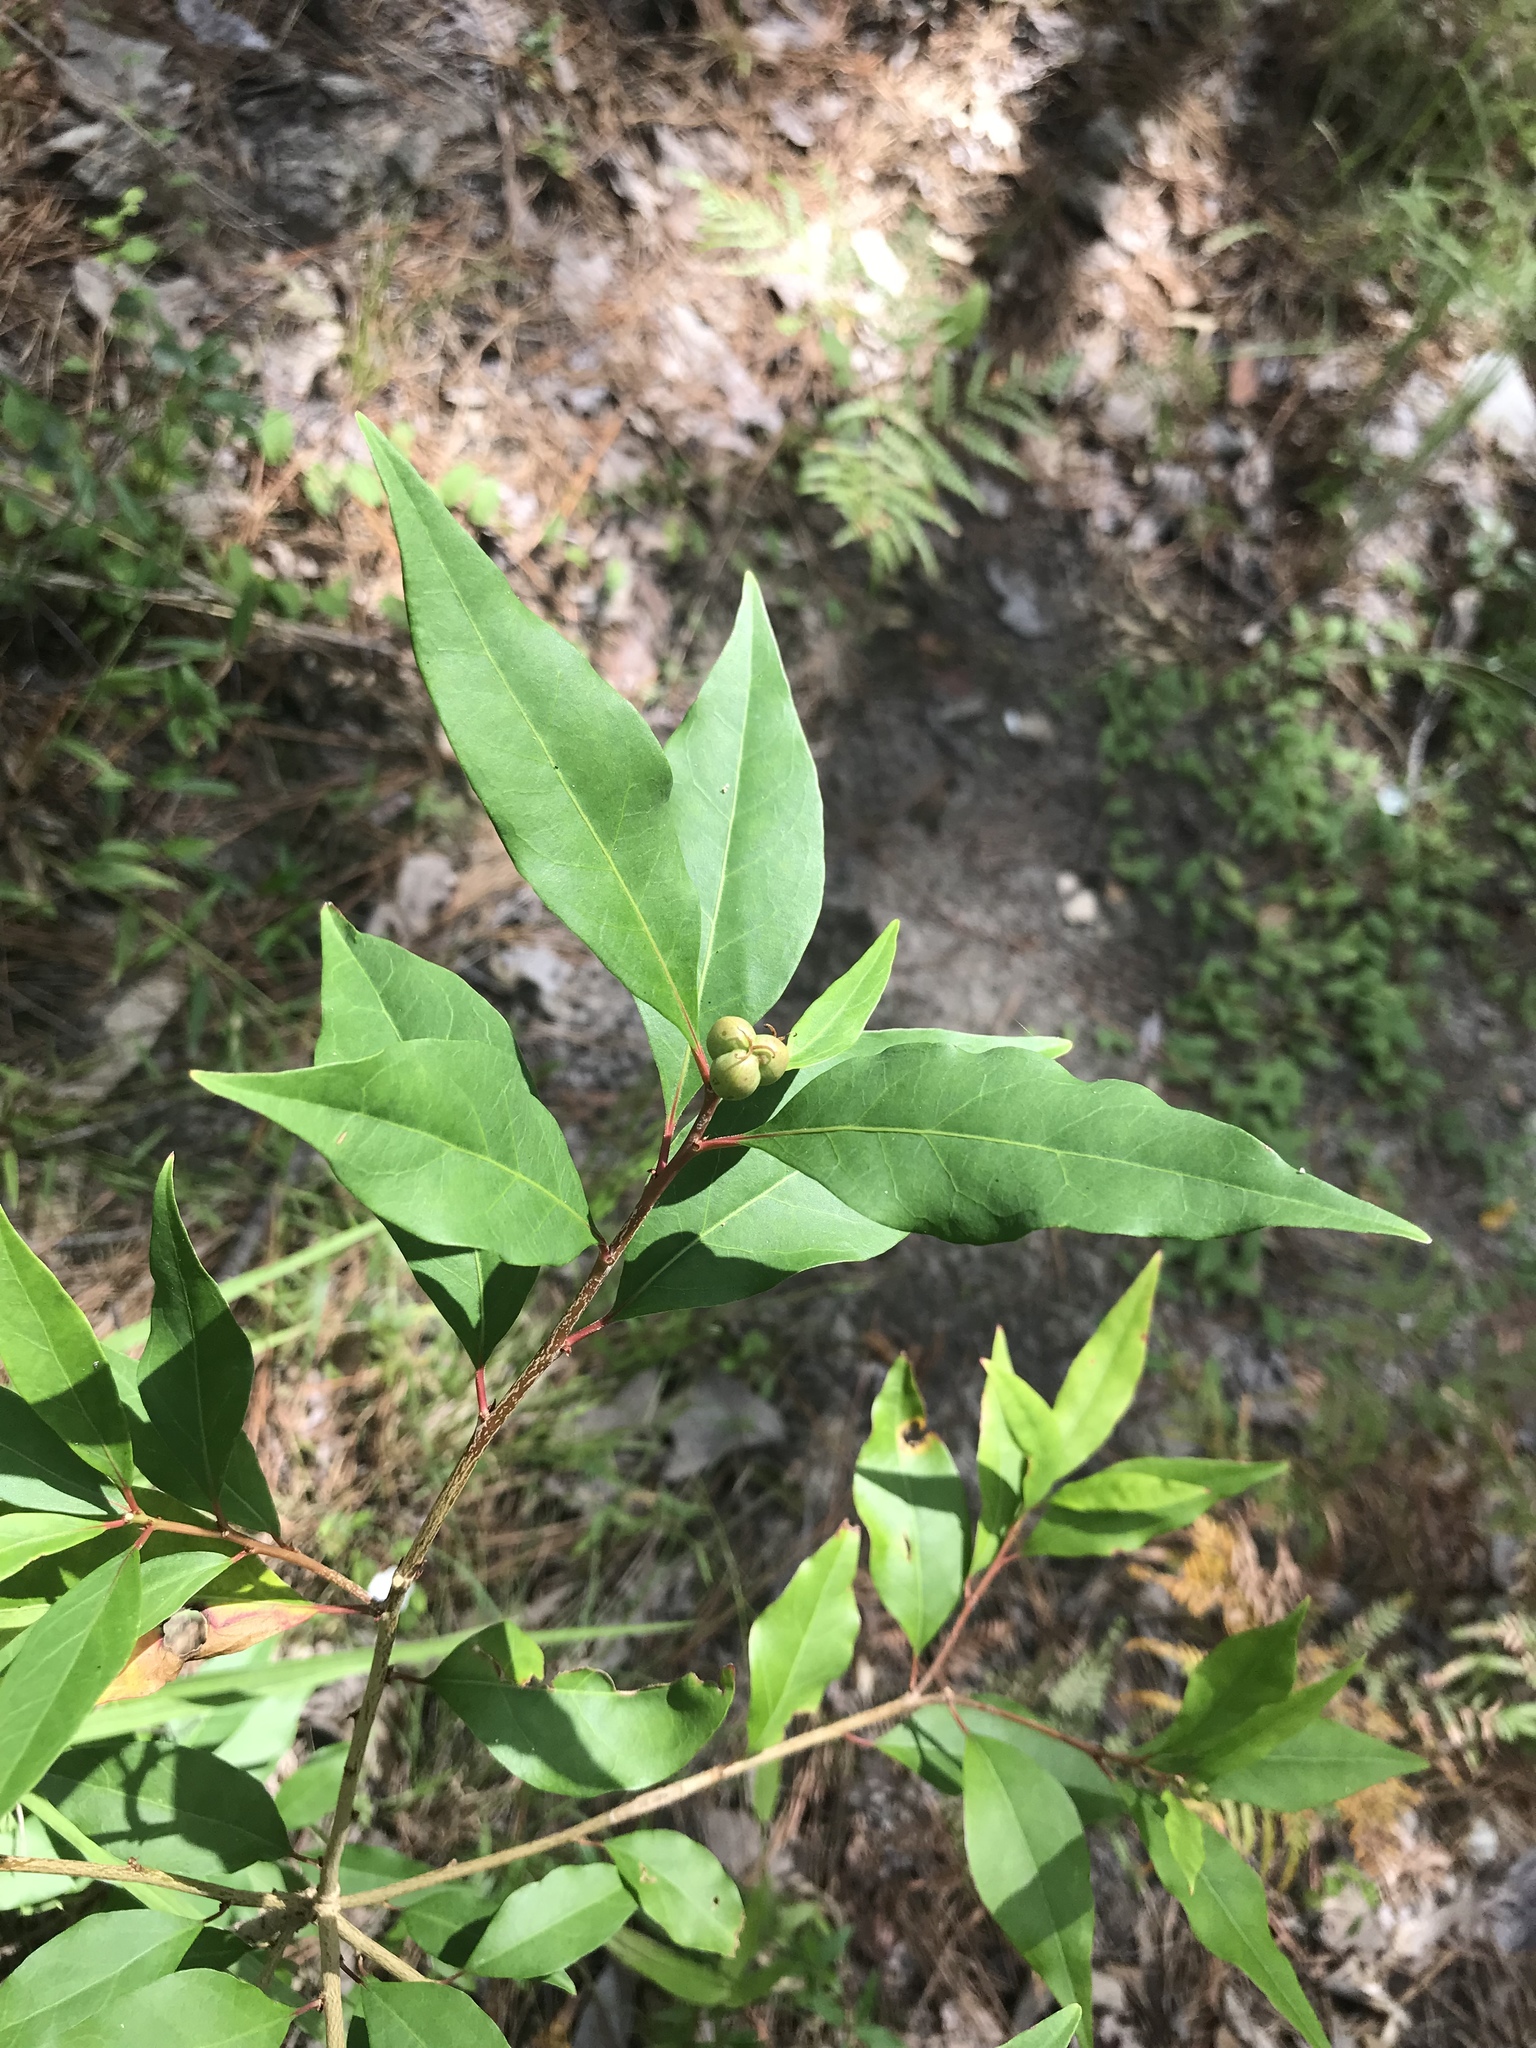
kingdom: Plantae
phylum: Tracheophyta
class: Magnoliopsida
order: Malpighiales
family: Euphorbiaceae
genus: Ditrysinia
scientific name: Ditrysinia fruticosa
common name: Gulf sebastian-bush
